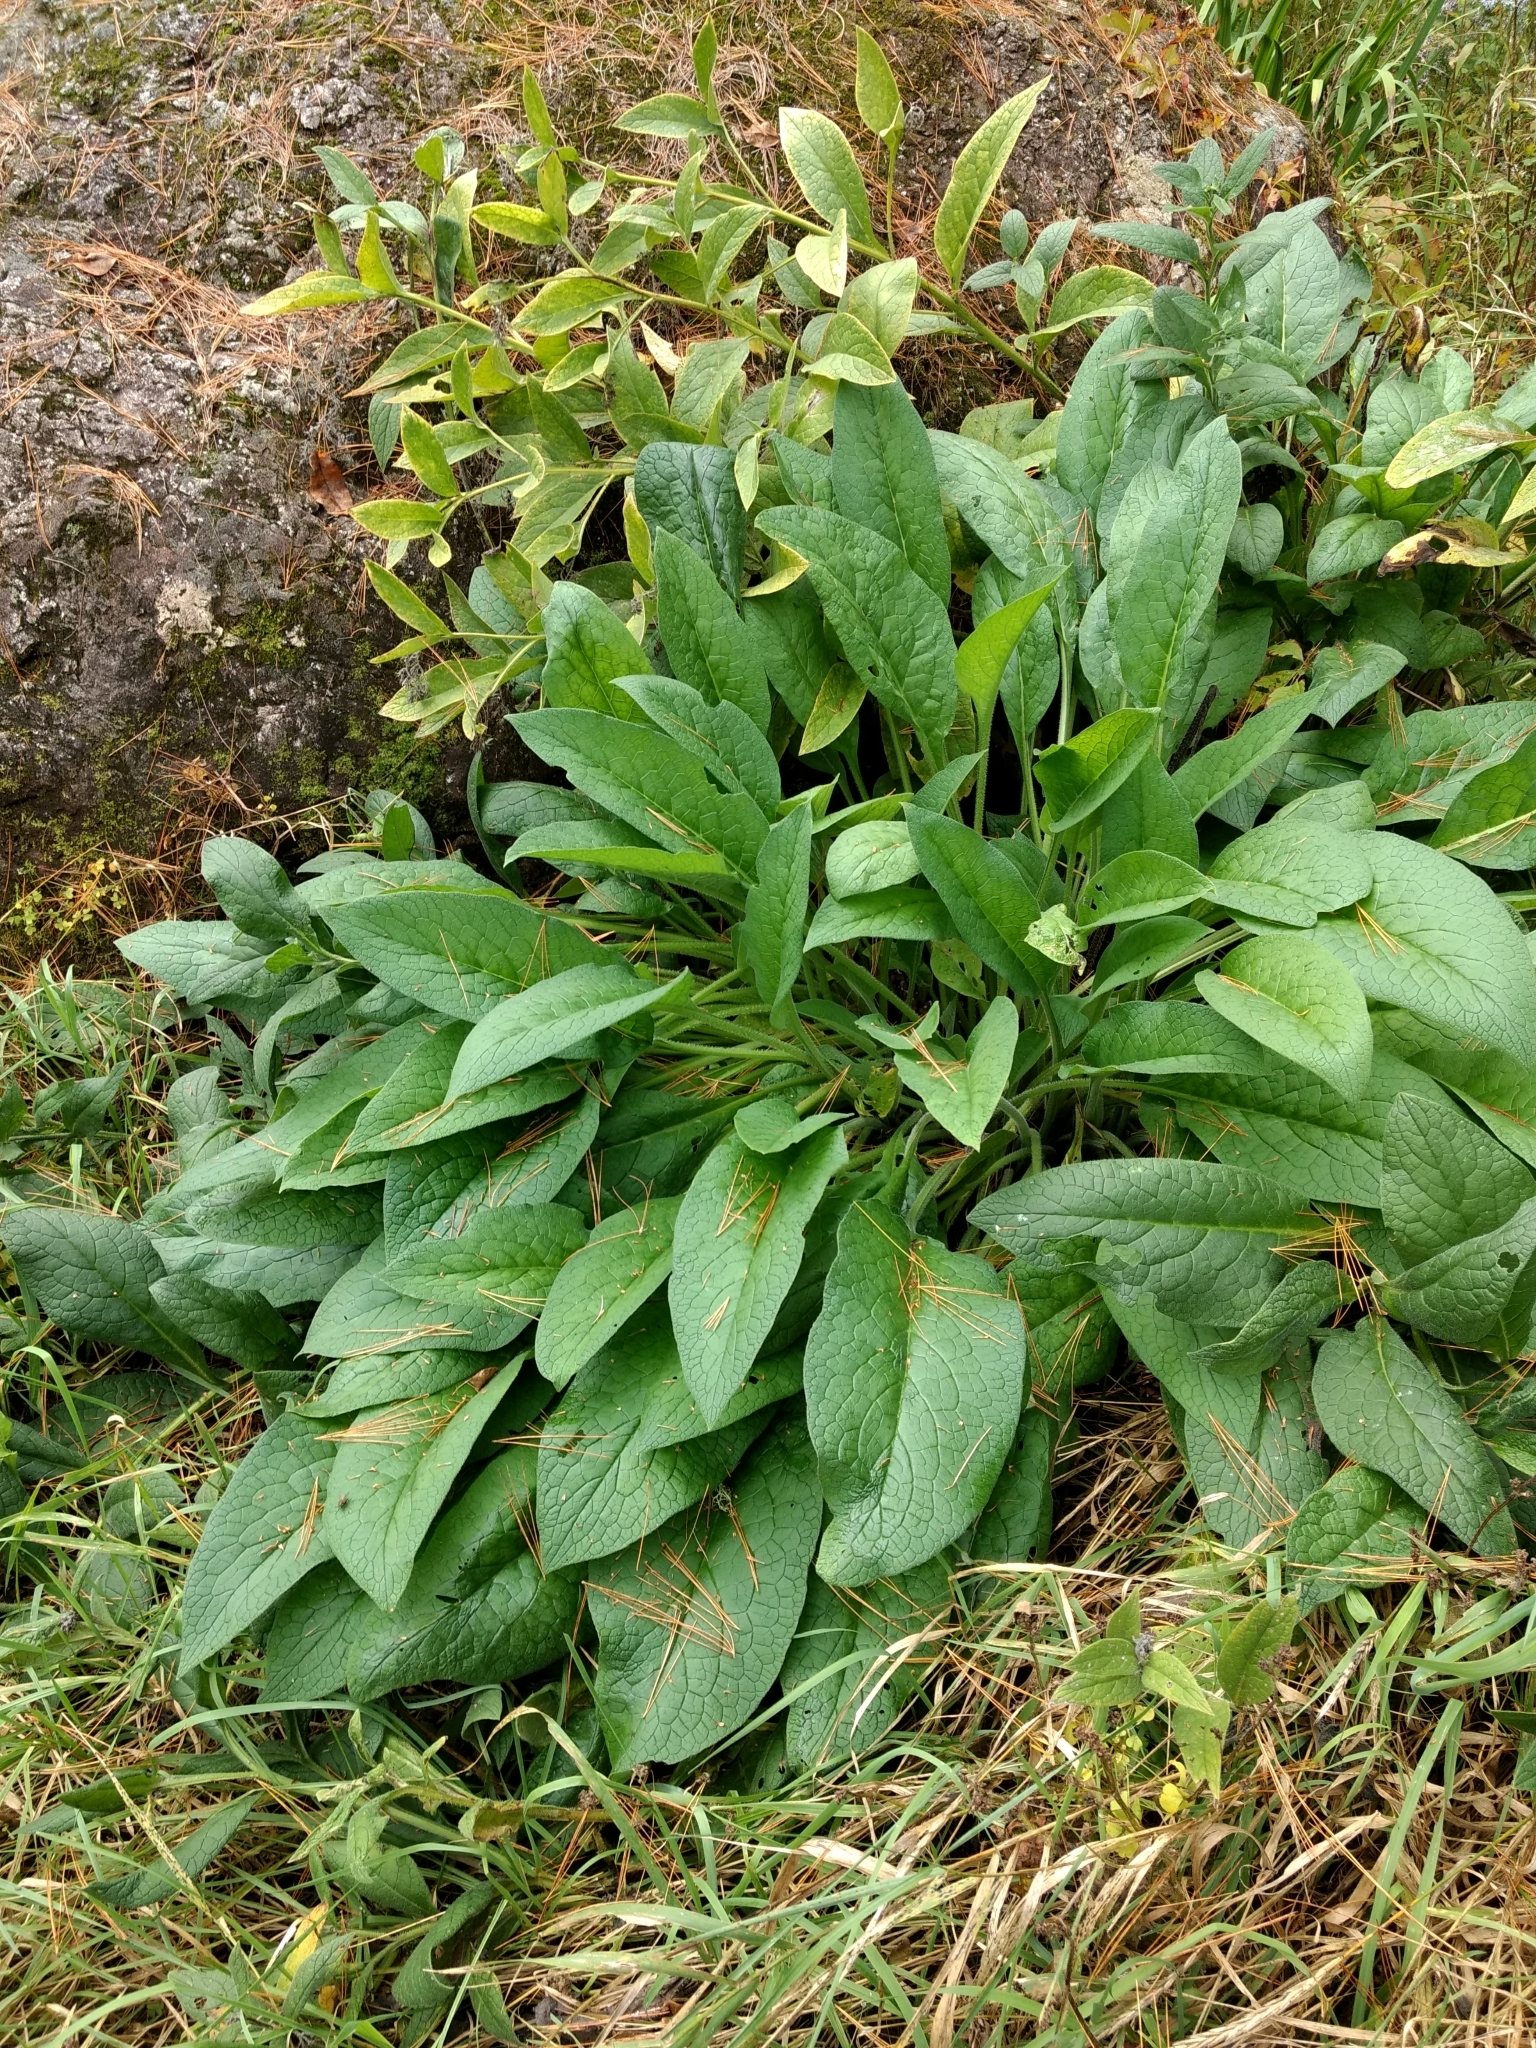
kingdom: Plantae
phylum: Tracheophyta
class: Magnoliopsida
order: Boraginales
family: Boraginaceae
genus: Symphytum
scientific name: Symphytum officinale
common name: Common comfrey
